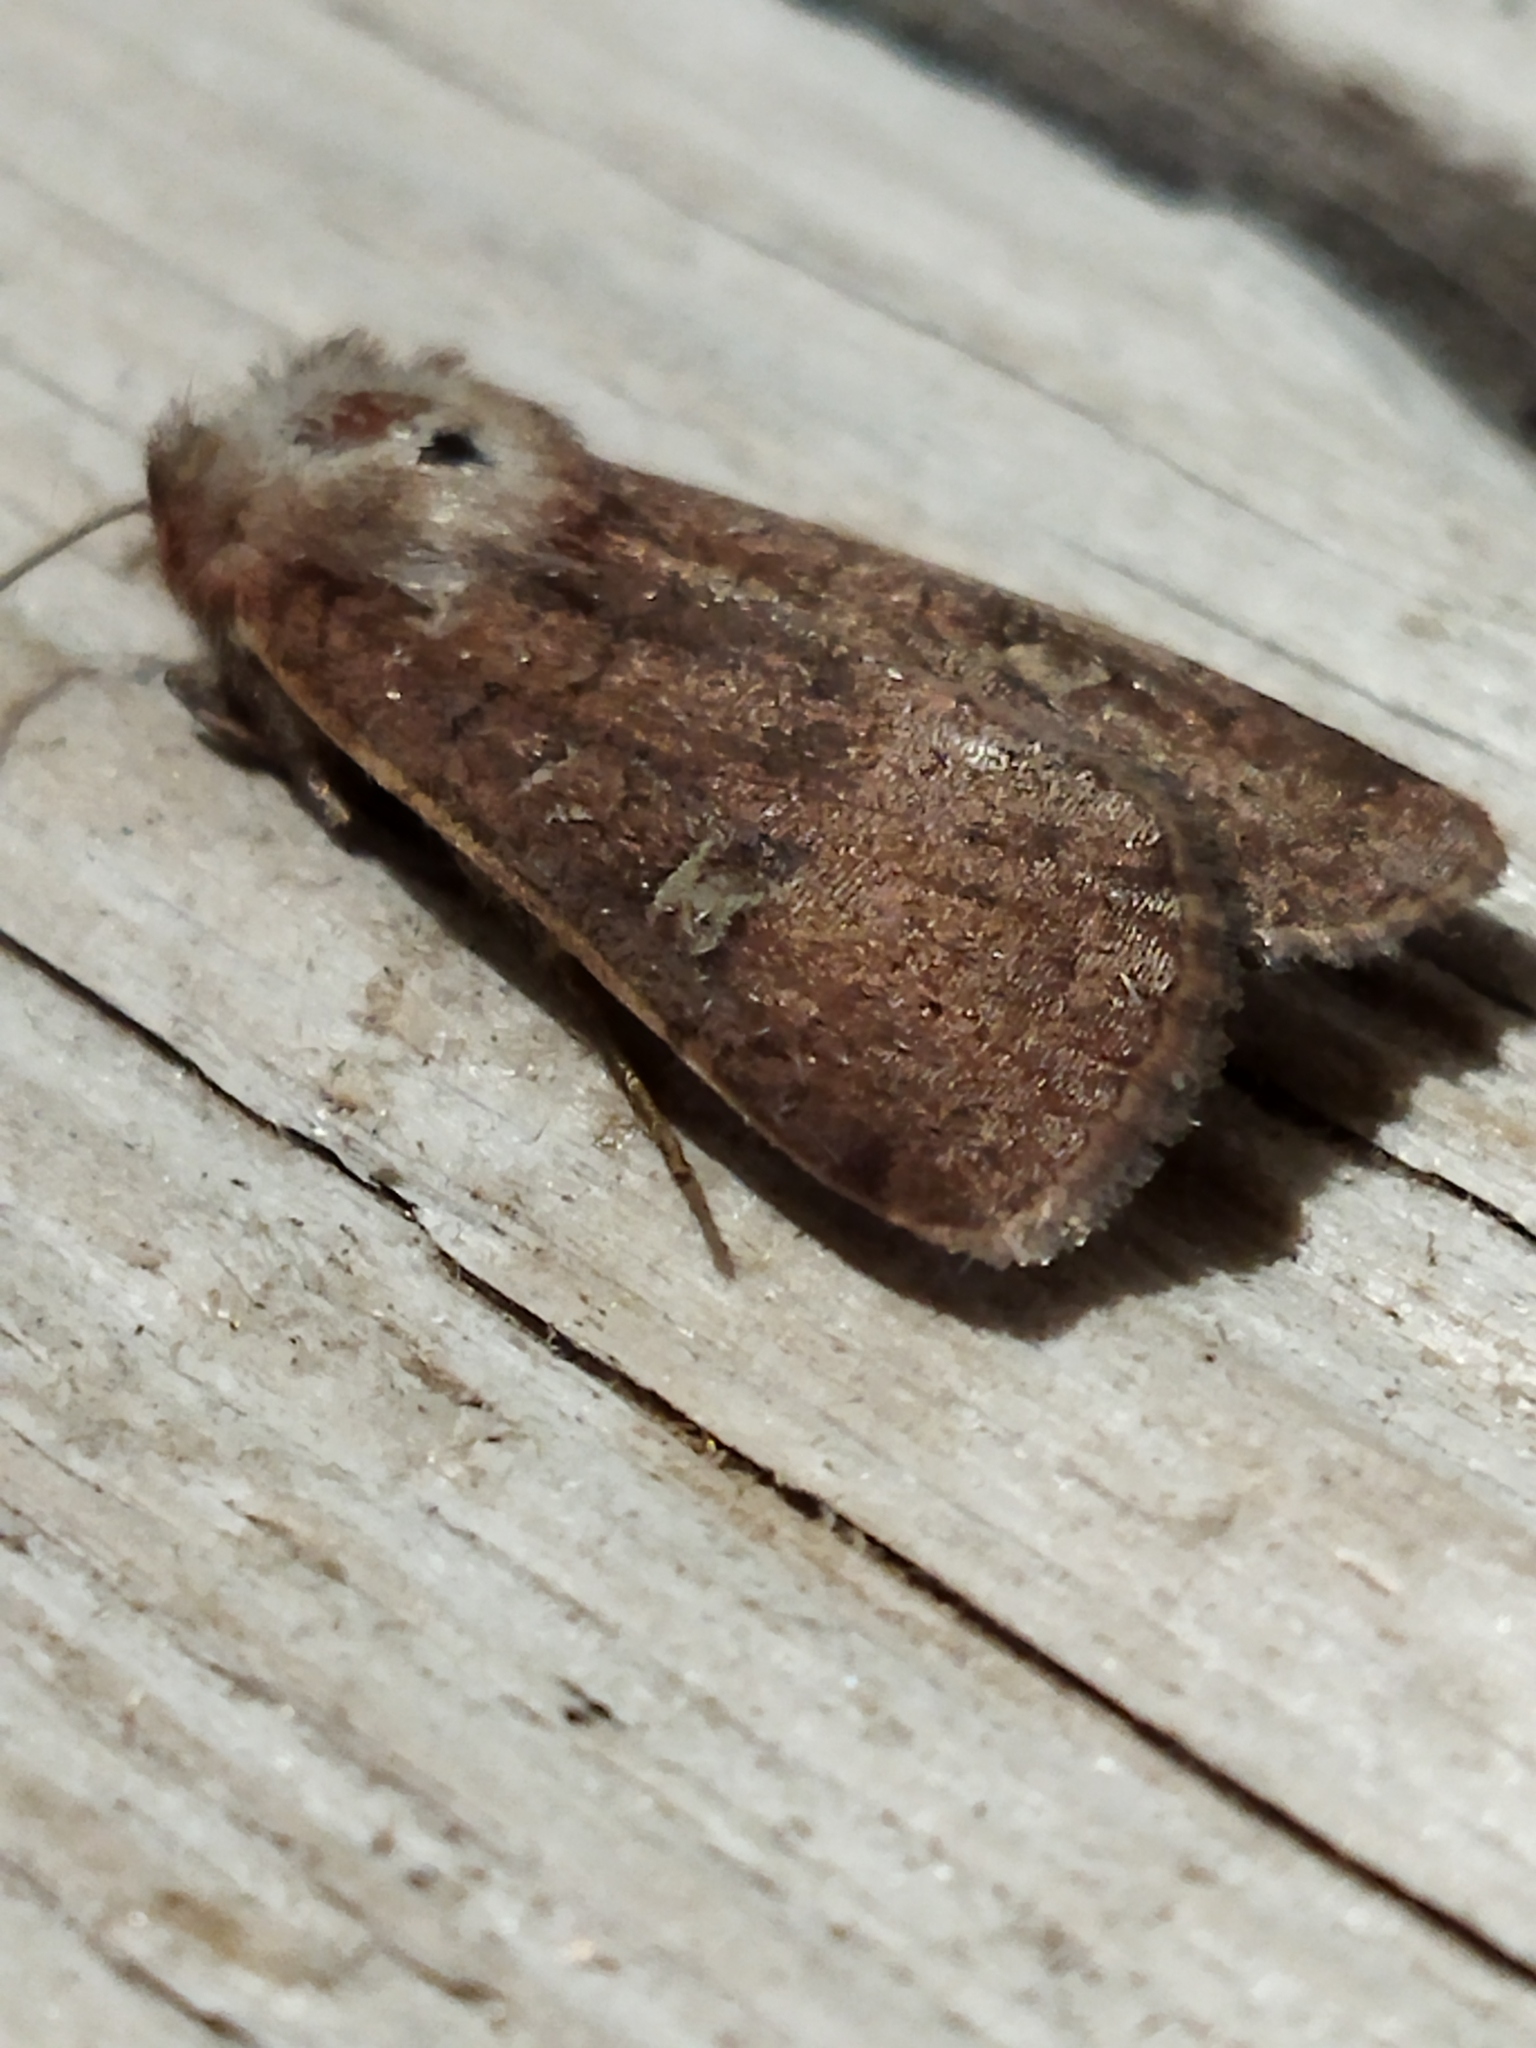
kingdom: Animalia
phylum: Arthropoda
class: Insecta
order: Lepidoptera
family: Noctuidae
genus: Xestia
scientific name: Xestia xanthographa
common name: Square-spot rustic
